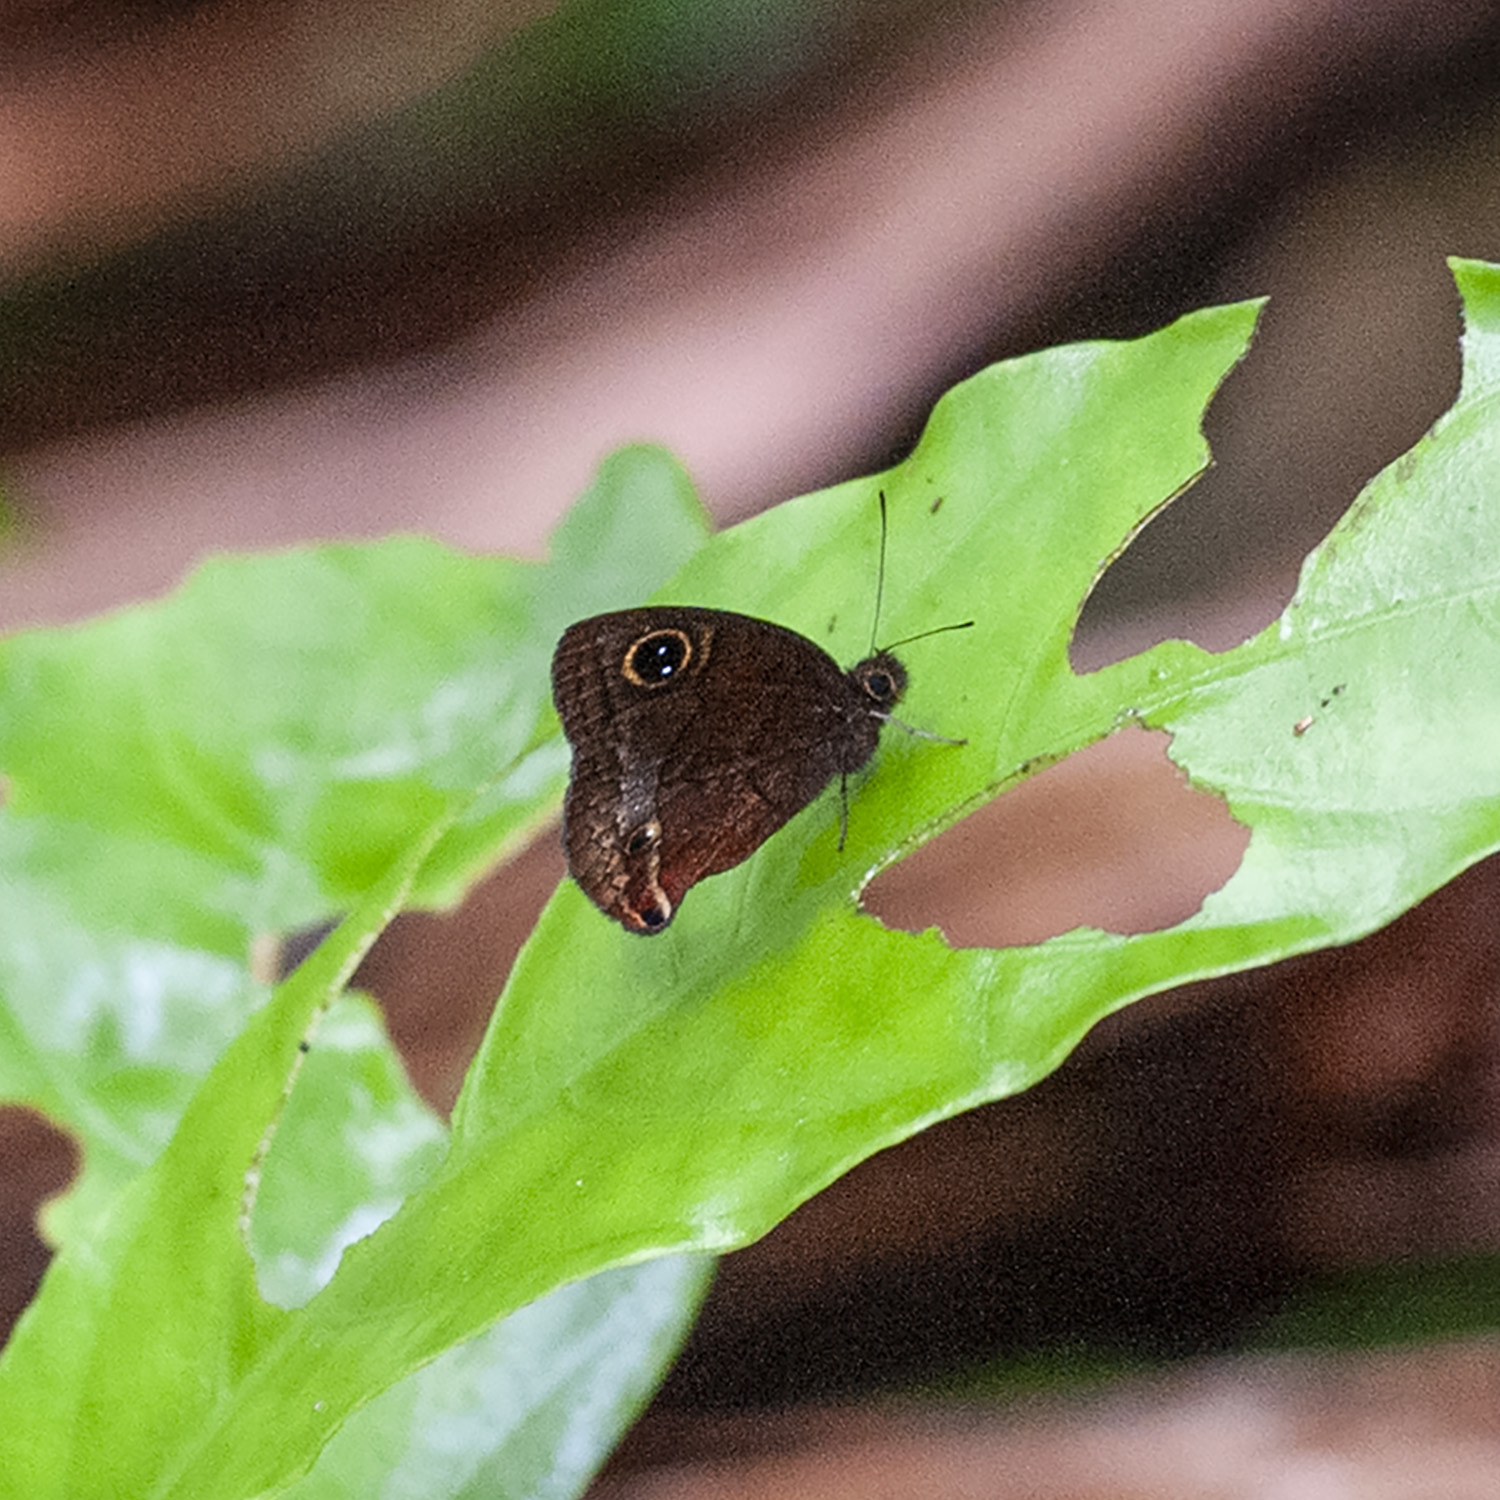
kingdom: Animalia
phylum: Arthropoda
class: Insecta
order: Lepidoptera
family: Nymphalidae
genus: Calisto
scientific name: Calisto nubila
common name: Puerto rican calisto
